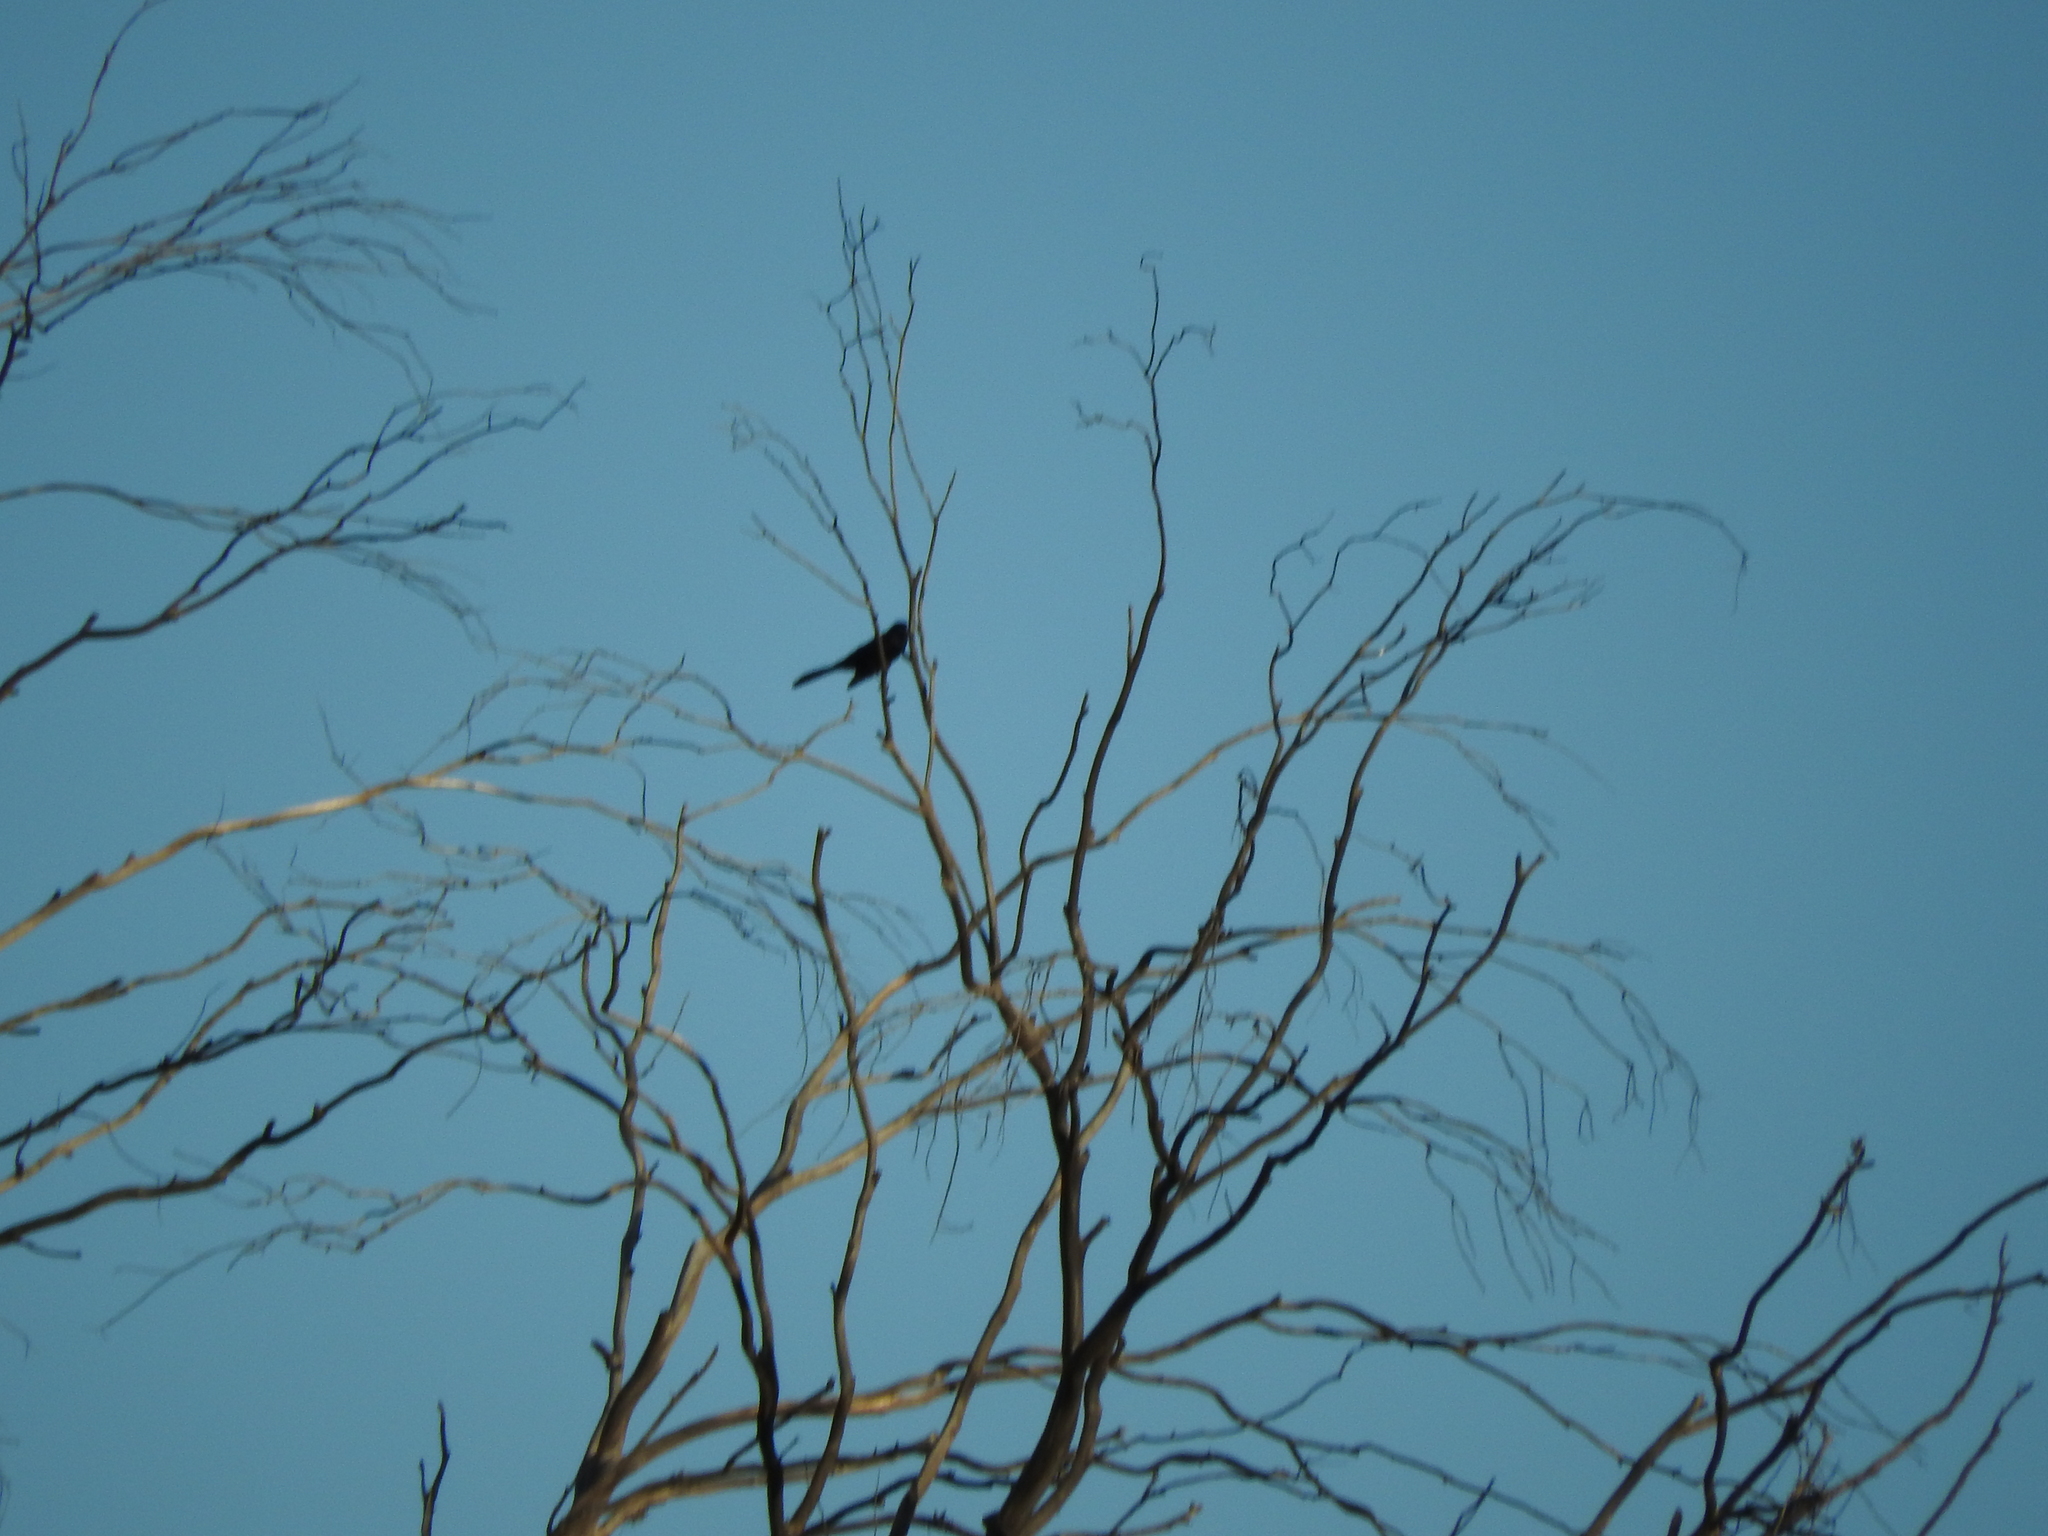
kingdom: Animalia
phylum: Chordata
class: Aves
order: Passeriformes
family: Icteridae
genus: Quiscalus
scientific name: Quiscalus mexicanus
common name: Great-tailed grackle
